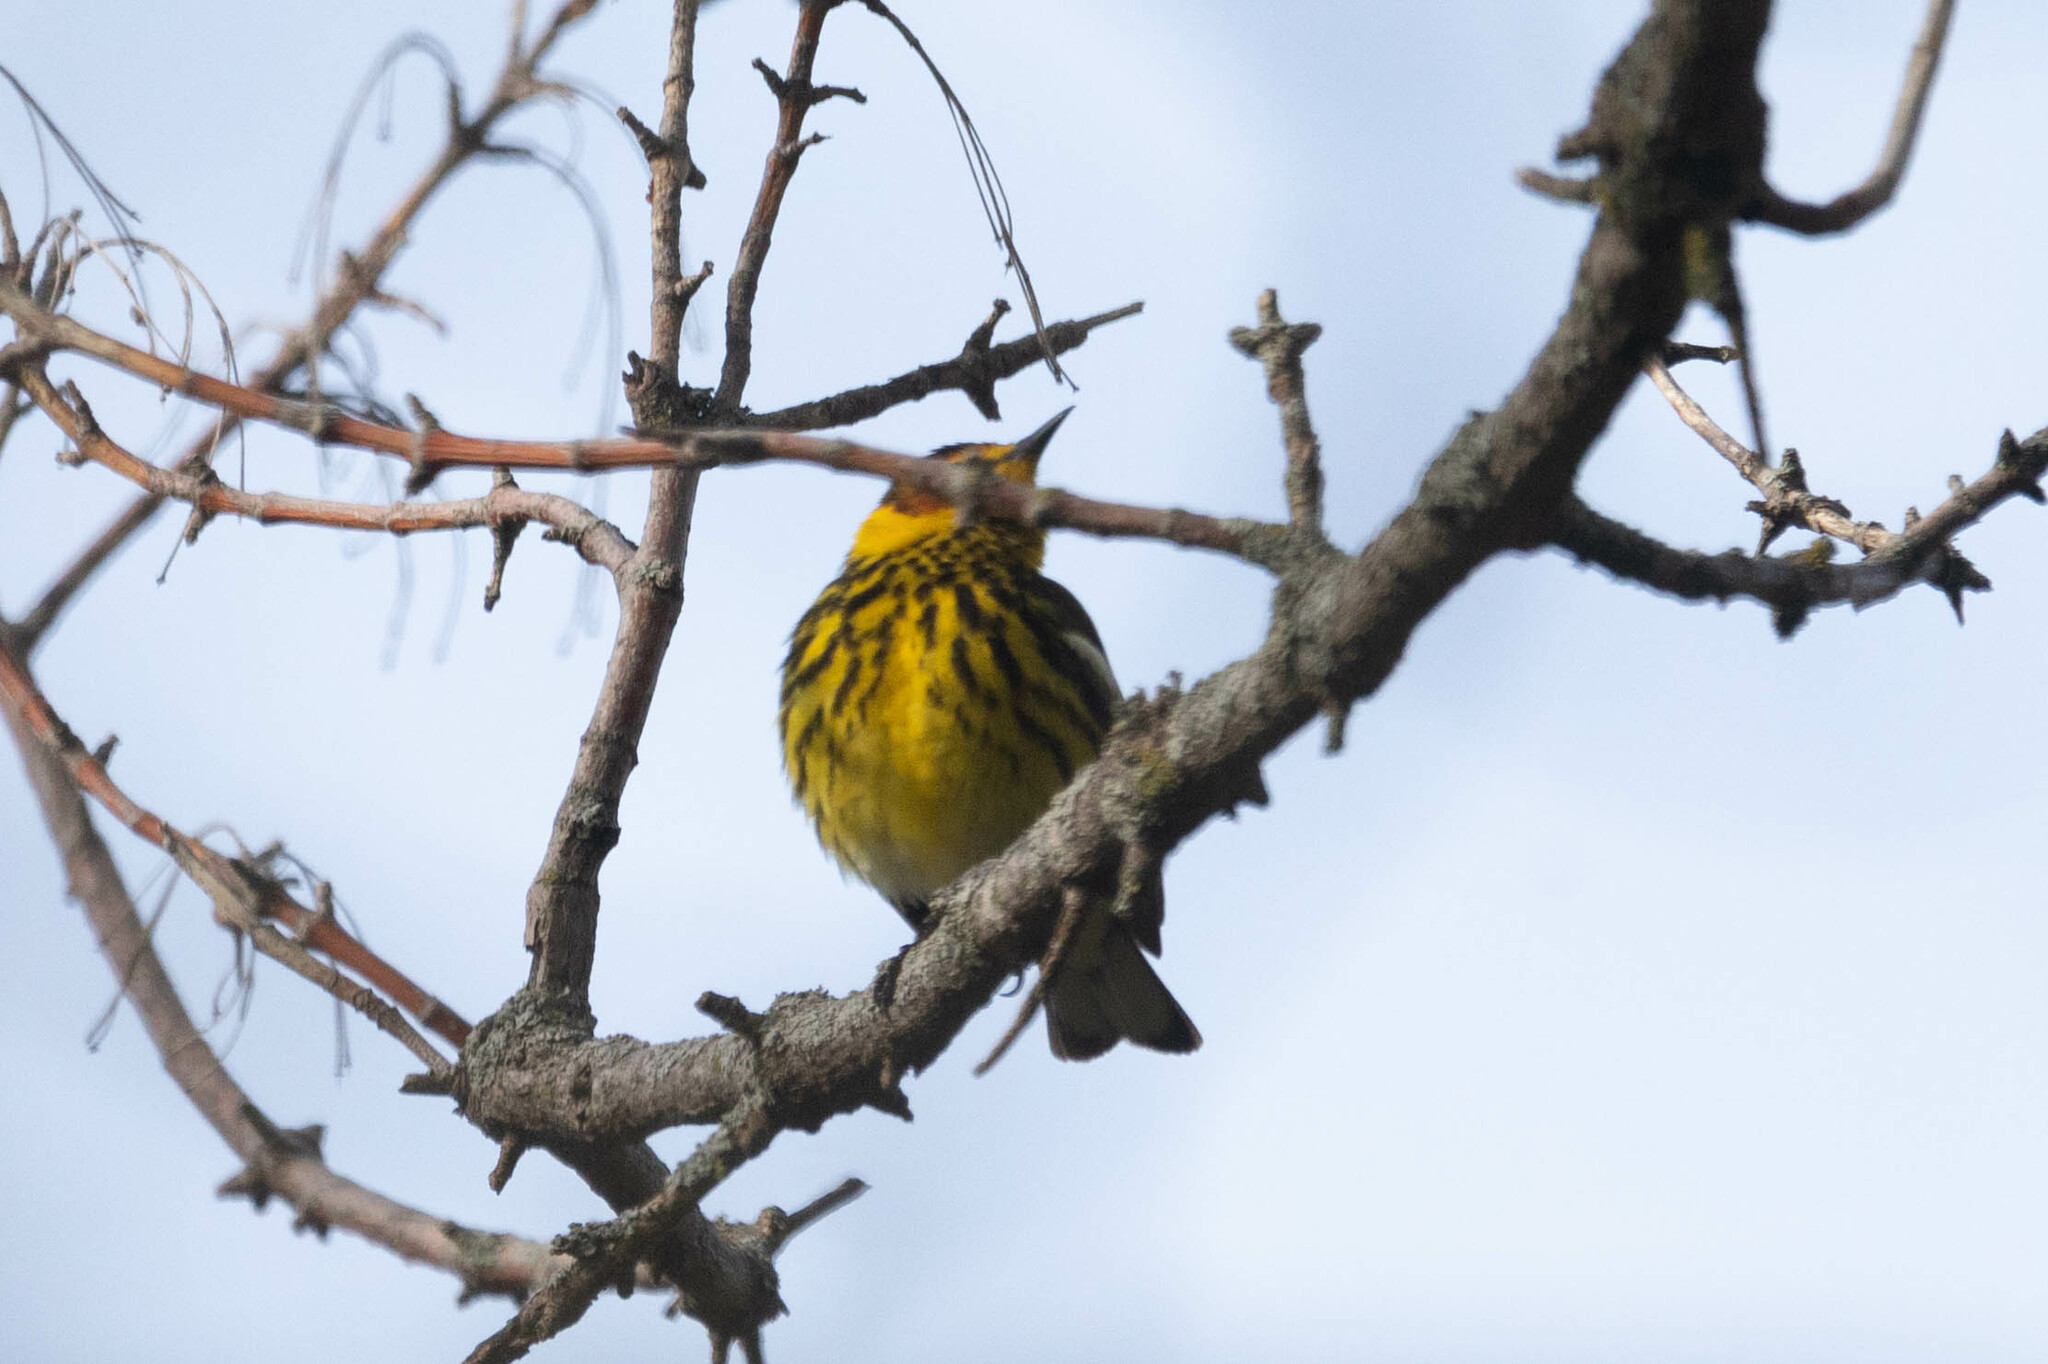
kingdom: Animalia
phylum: Chordata
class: Aves
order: Passeriformes
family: Parulidae
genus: Setophaga
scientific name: Setophaga tigrina
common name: Cape may warbler
